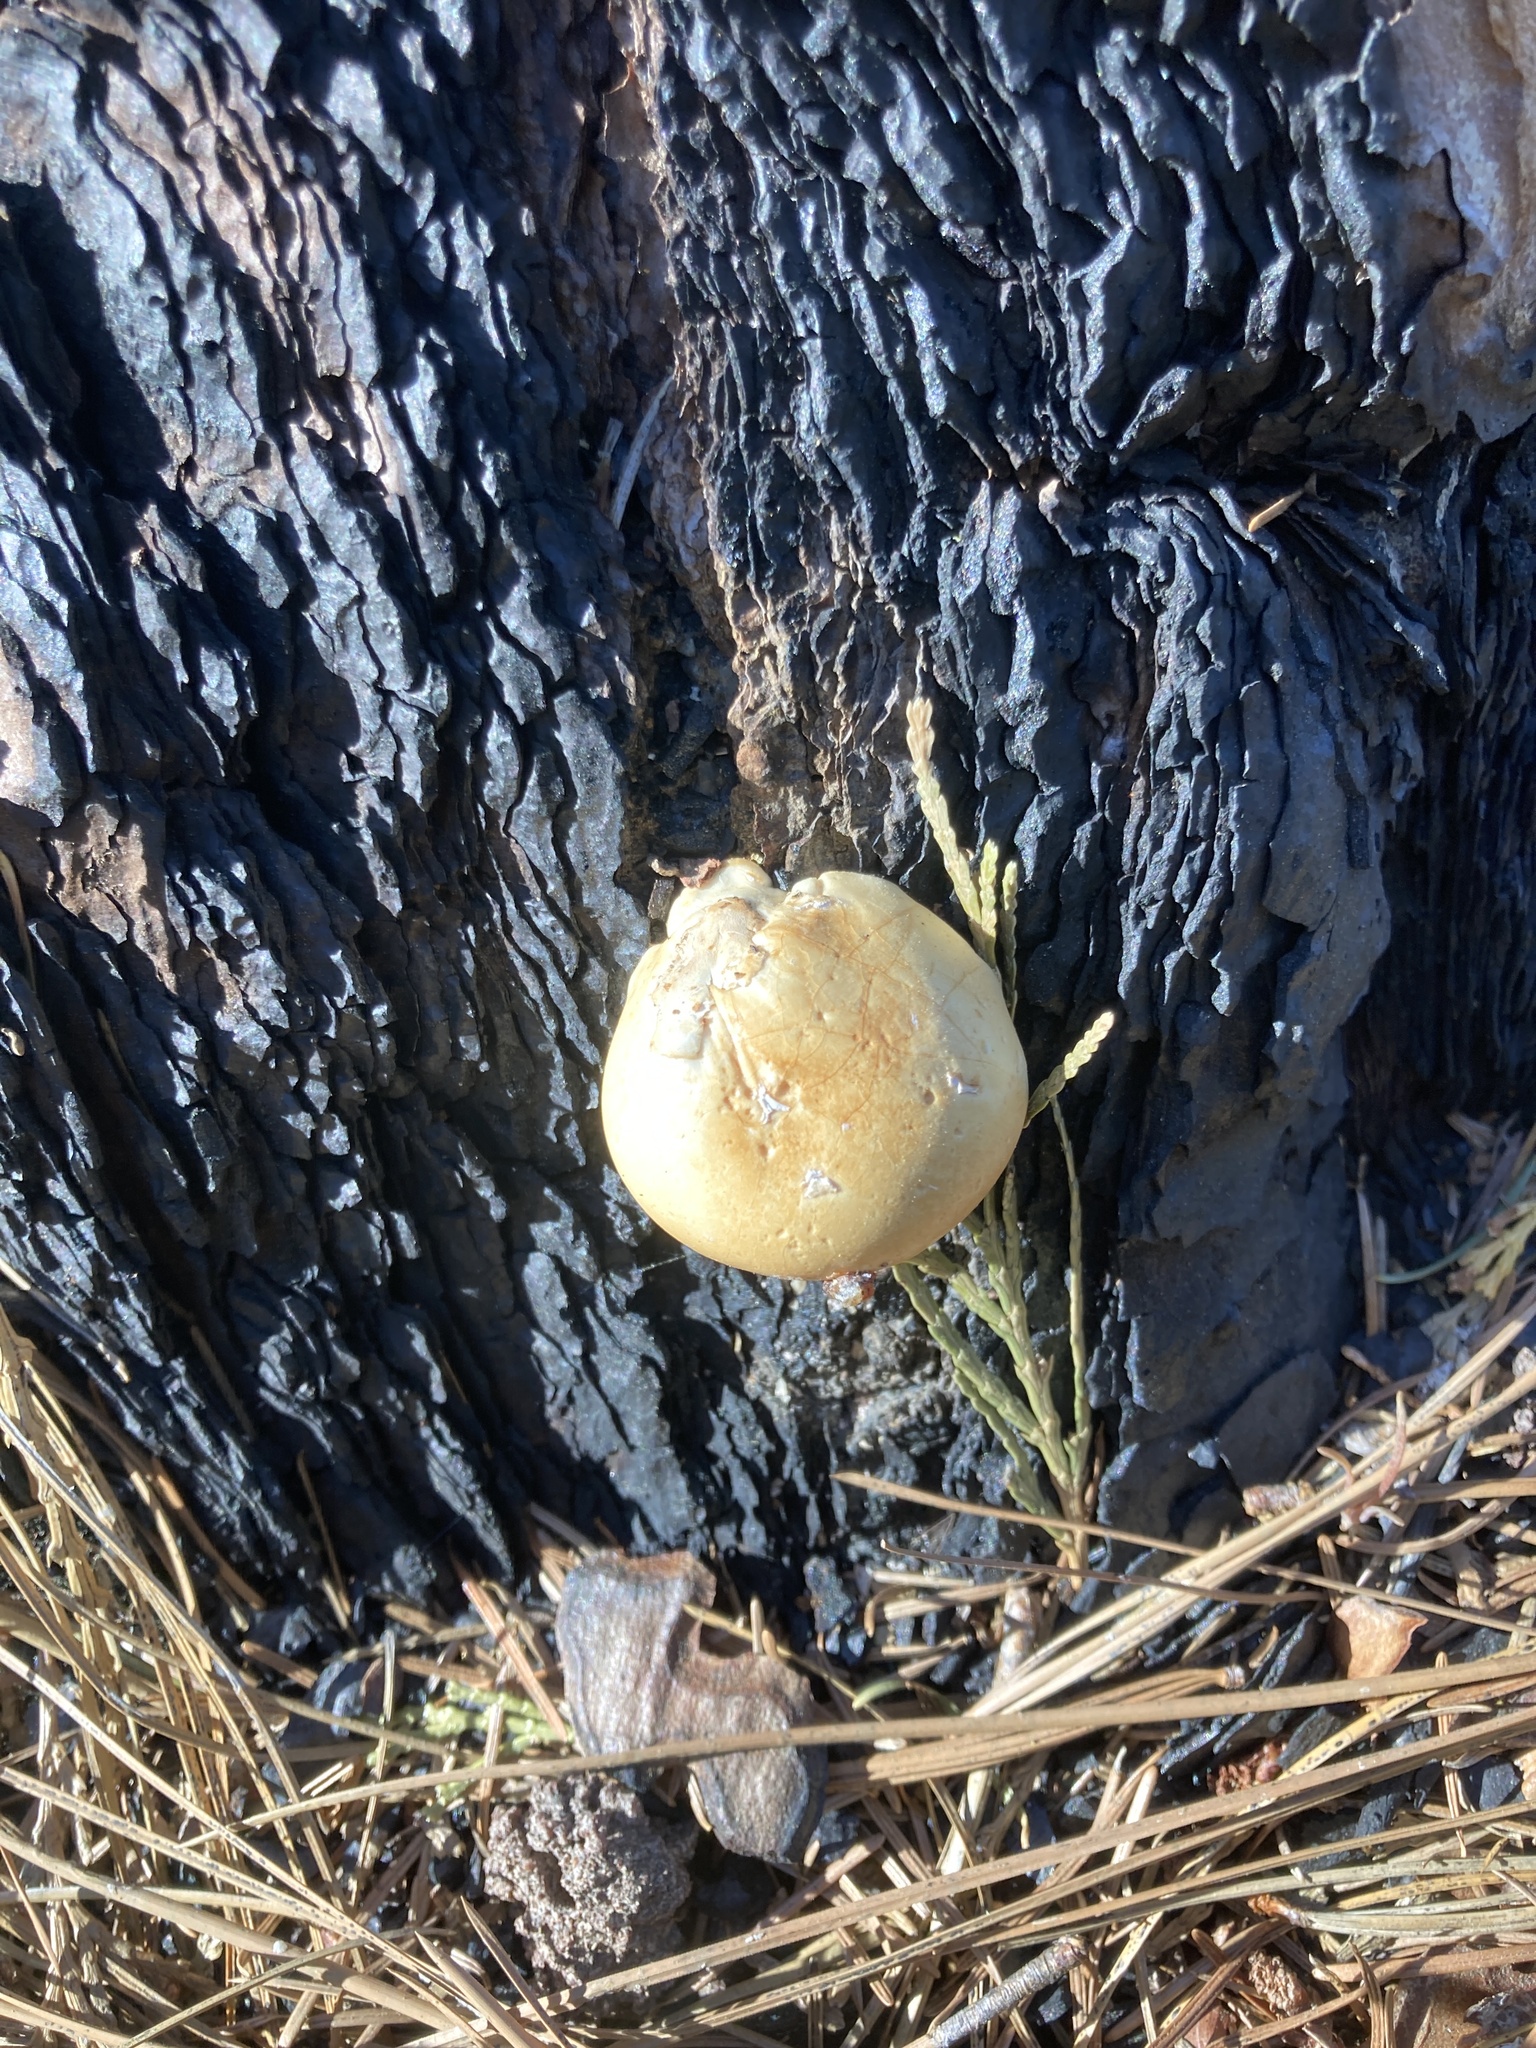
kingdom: Fungi
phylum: Basidiomycota
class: Agaricomycetes
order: Polyporales
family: Polyporaceae
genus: Cryptoporus
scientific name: Cryptoporus volvatus
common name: Veiled polypore
